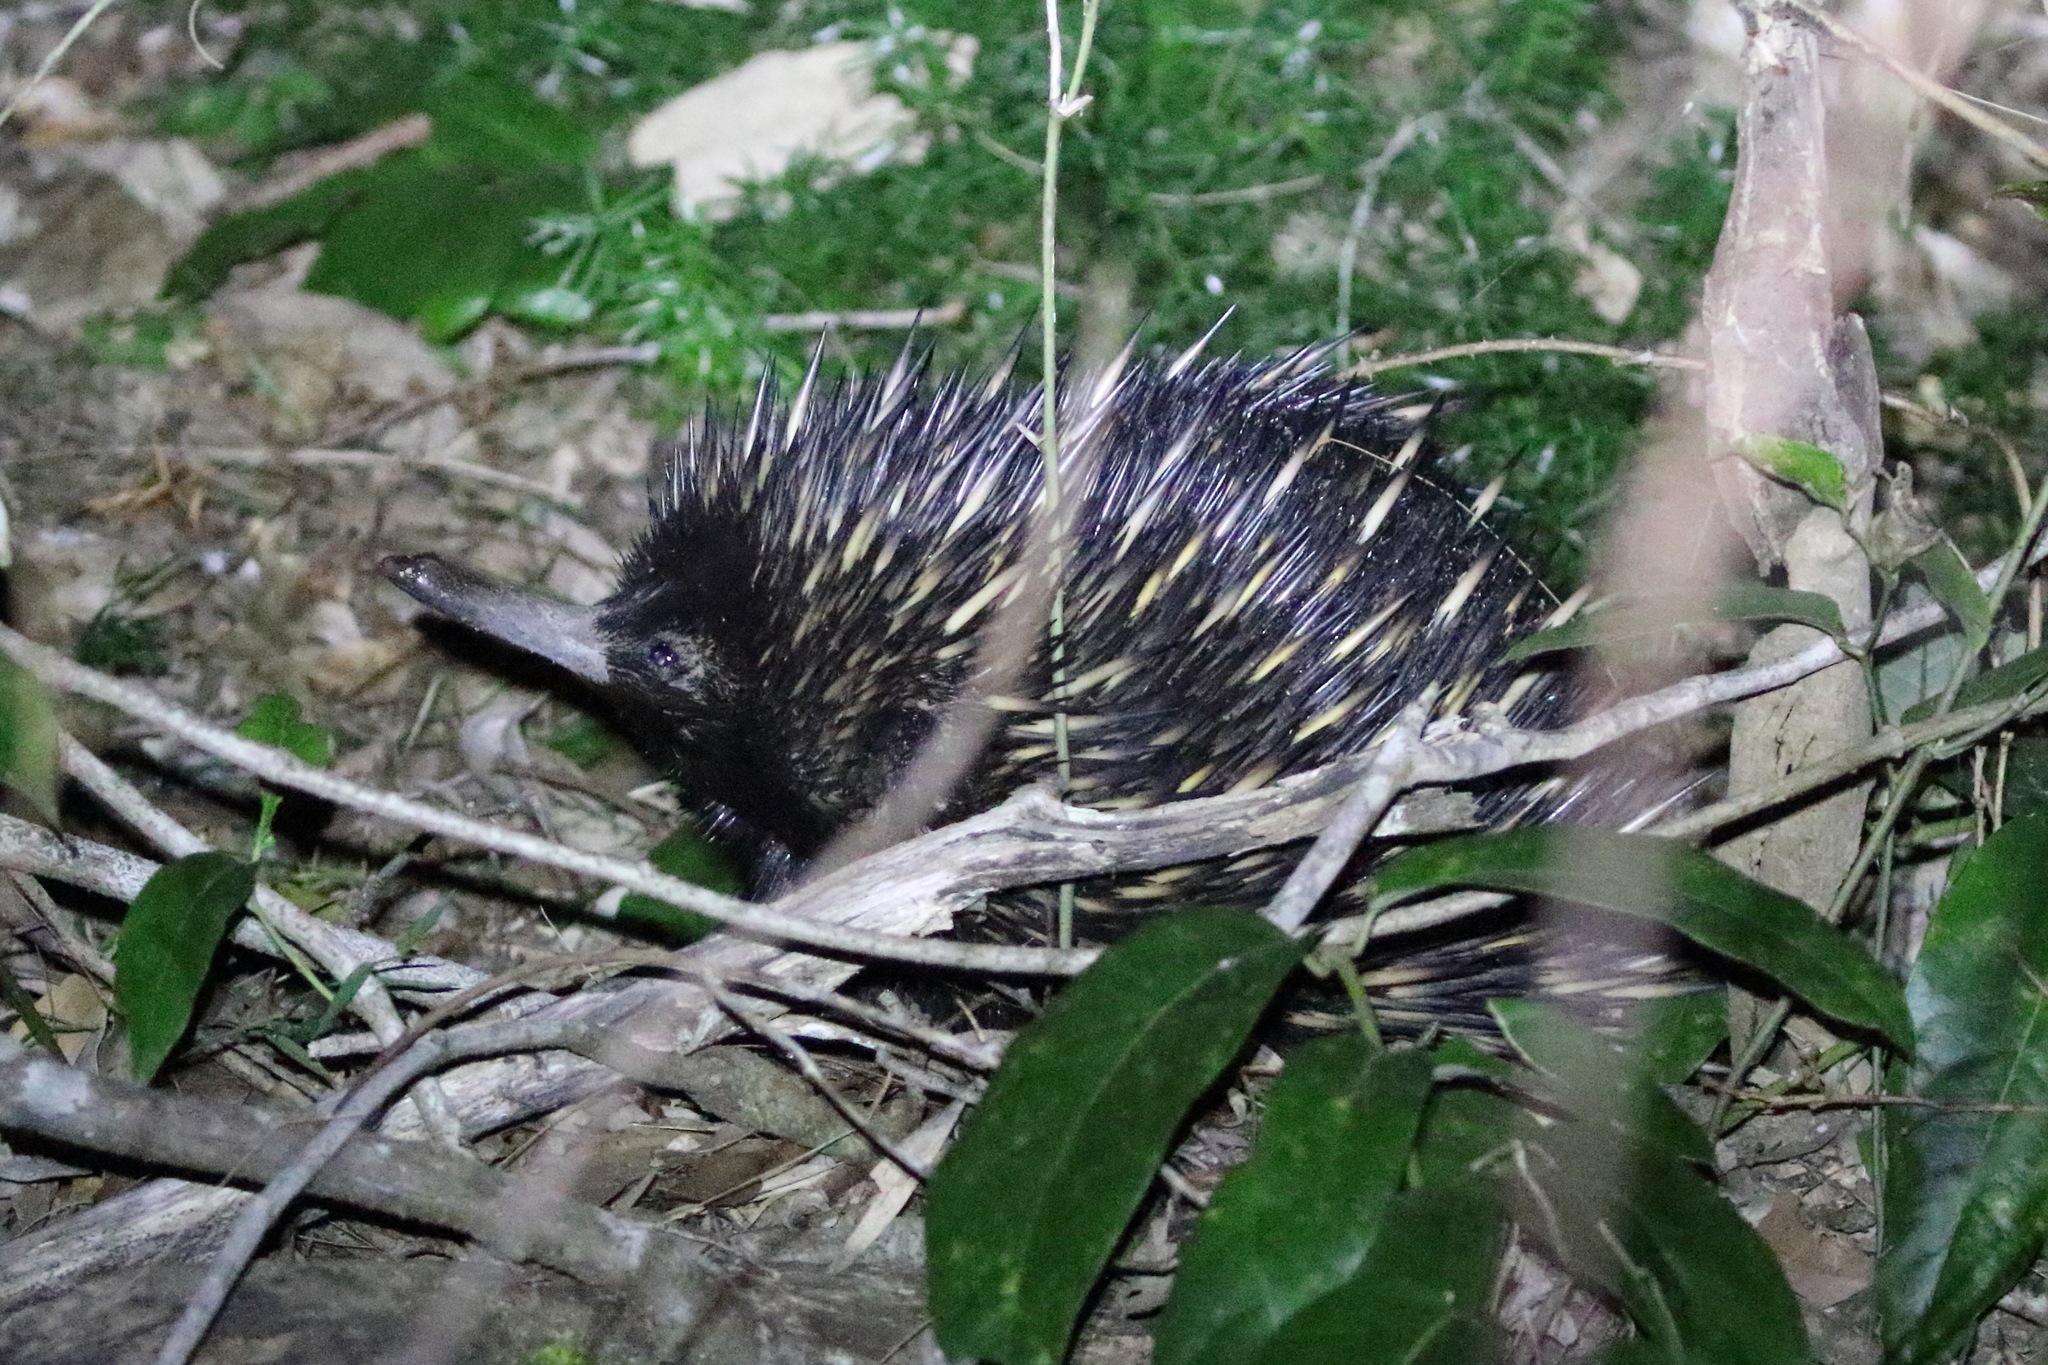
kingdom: Animalia
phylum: Chordata
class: Mammalia
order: Monotremata
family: Tachyglossidae
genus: Tachyglossus
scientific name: Tachyglossus aculeatus
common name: Short-beaked echidna
